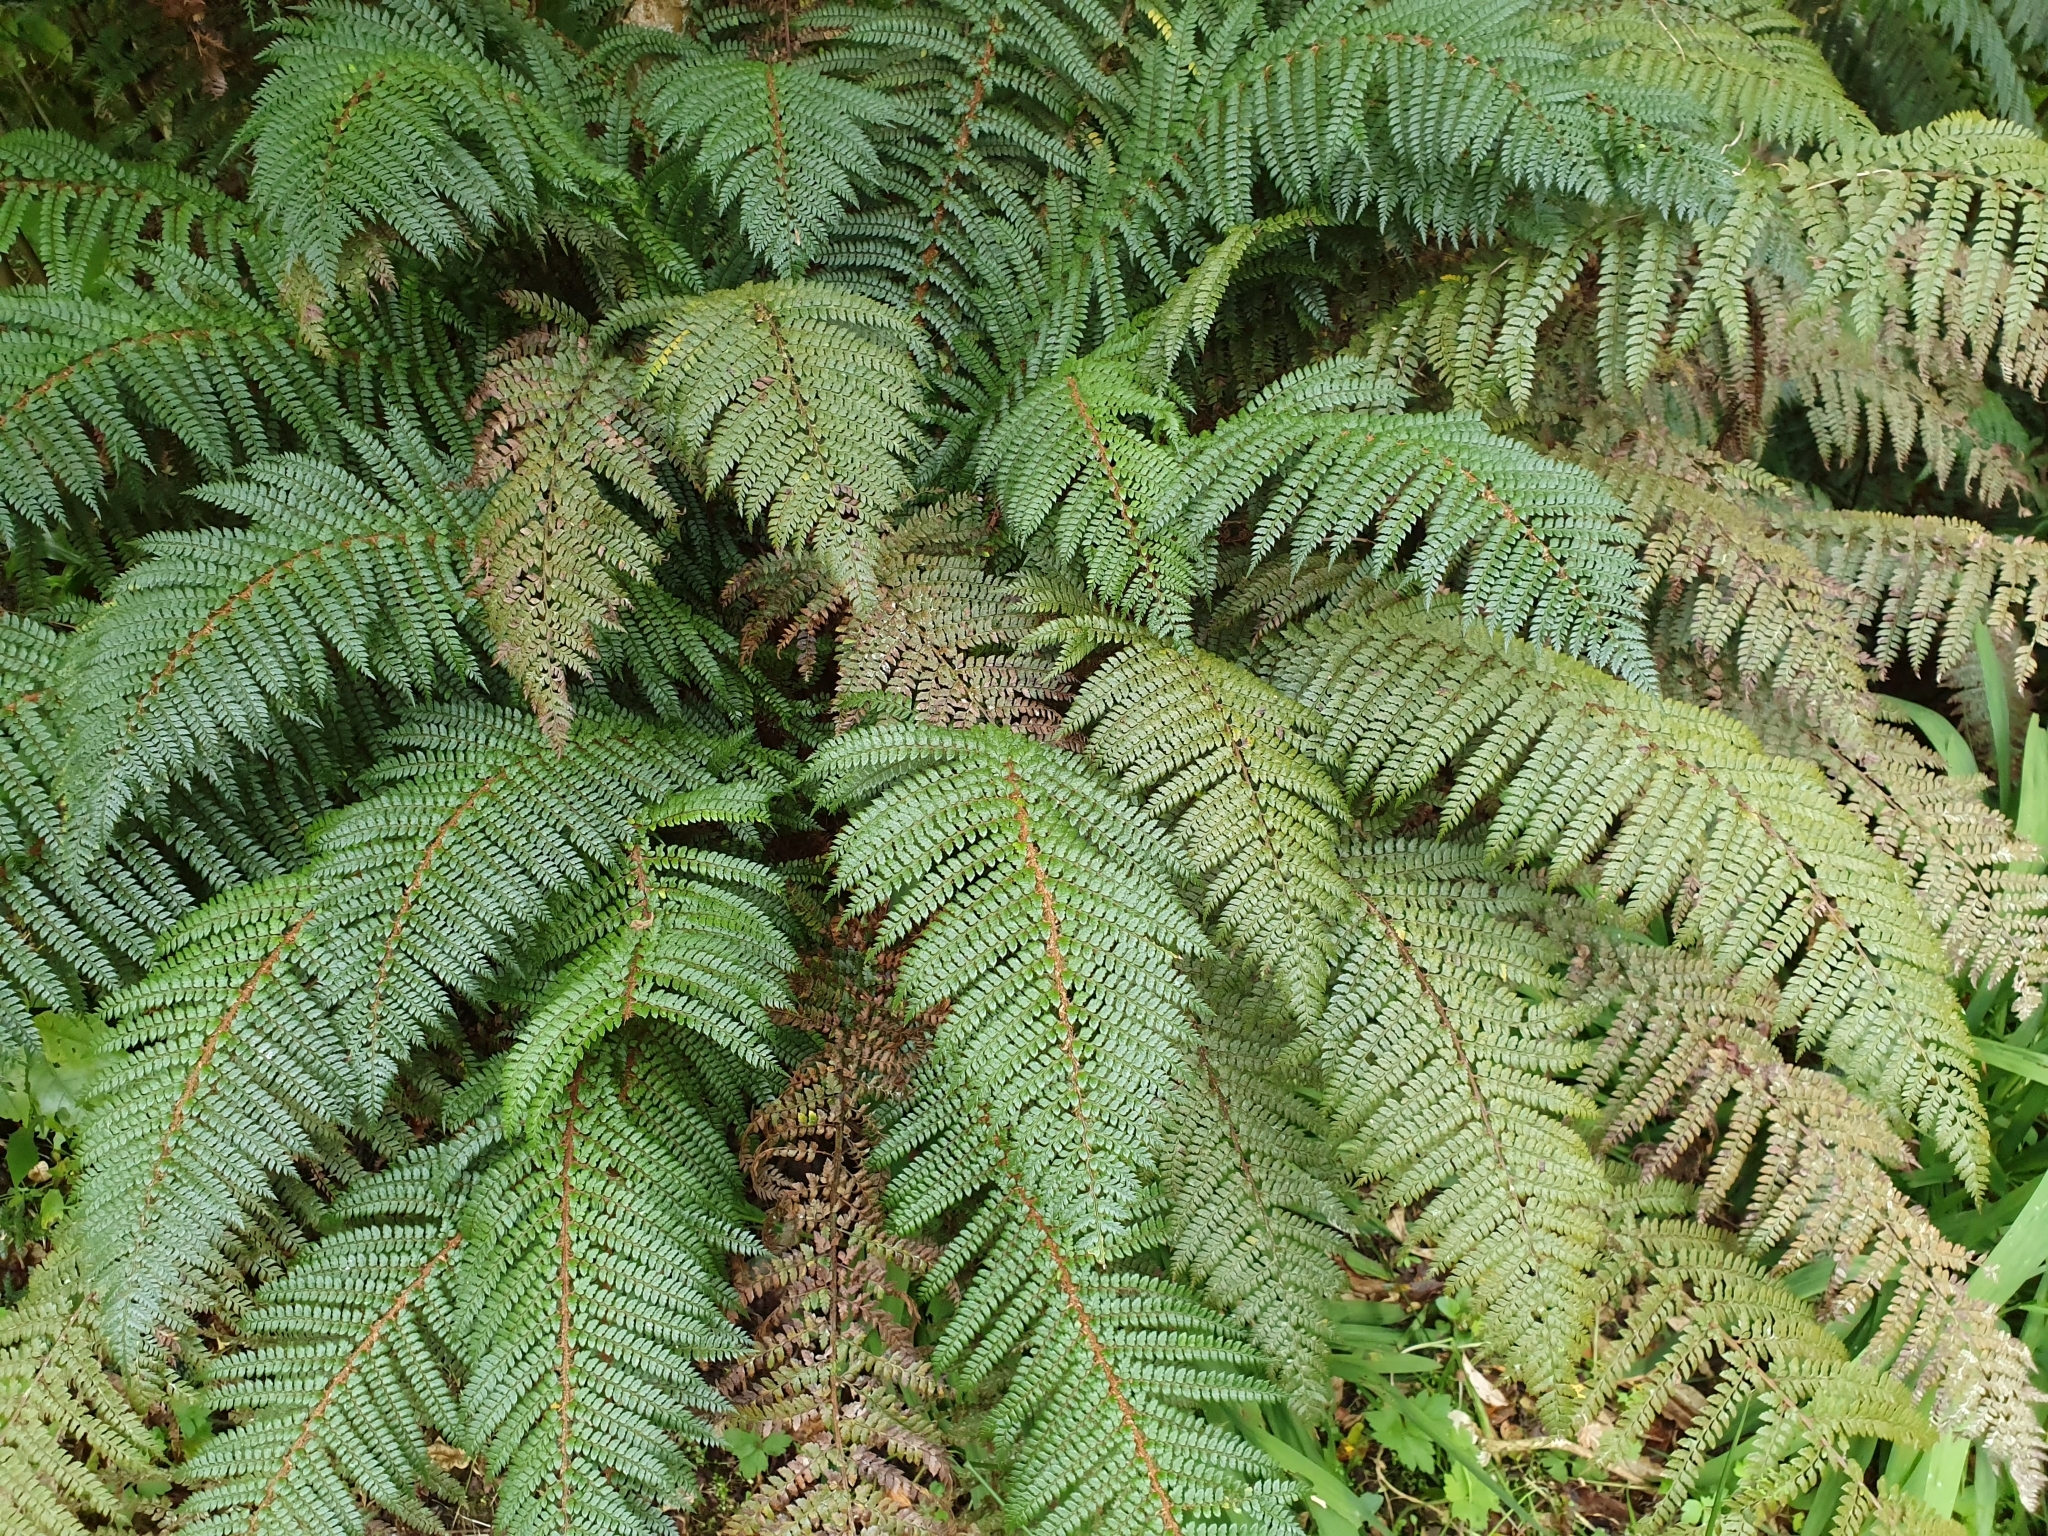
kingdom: Plantae
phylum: Tracheophyta
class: Polypodiopsida
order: Polypodiales
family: Dryopteridaceae
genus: Polystichum
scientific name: Polystichum vestitum
